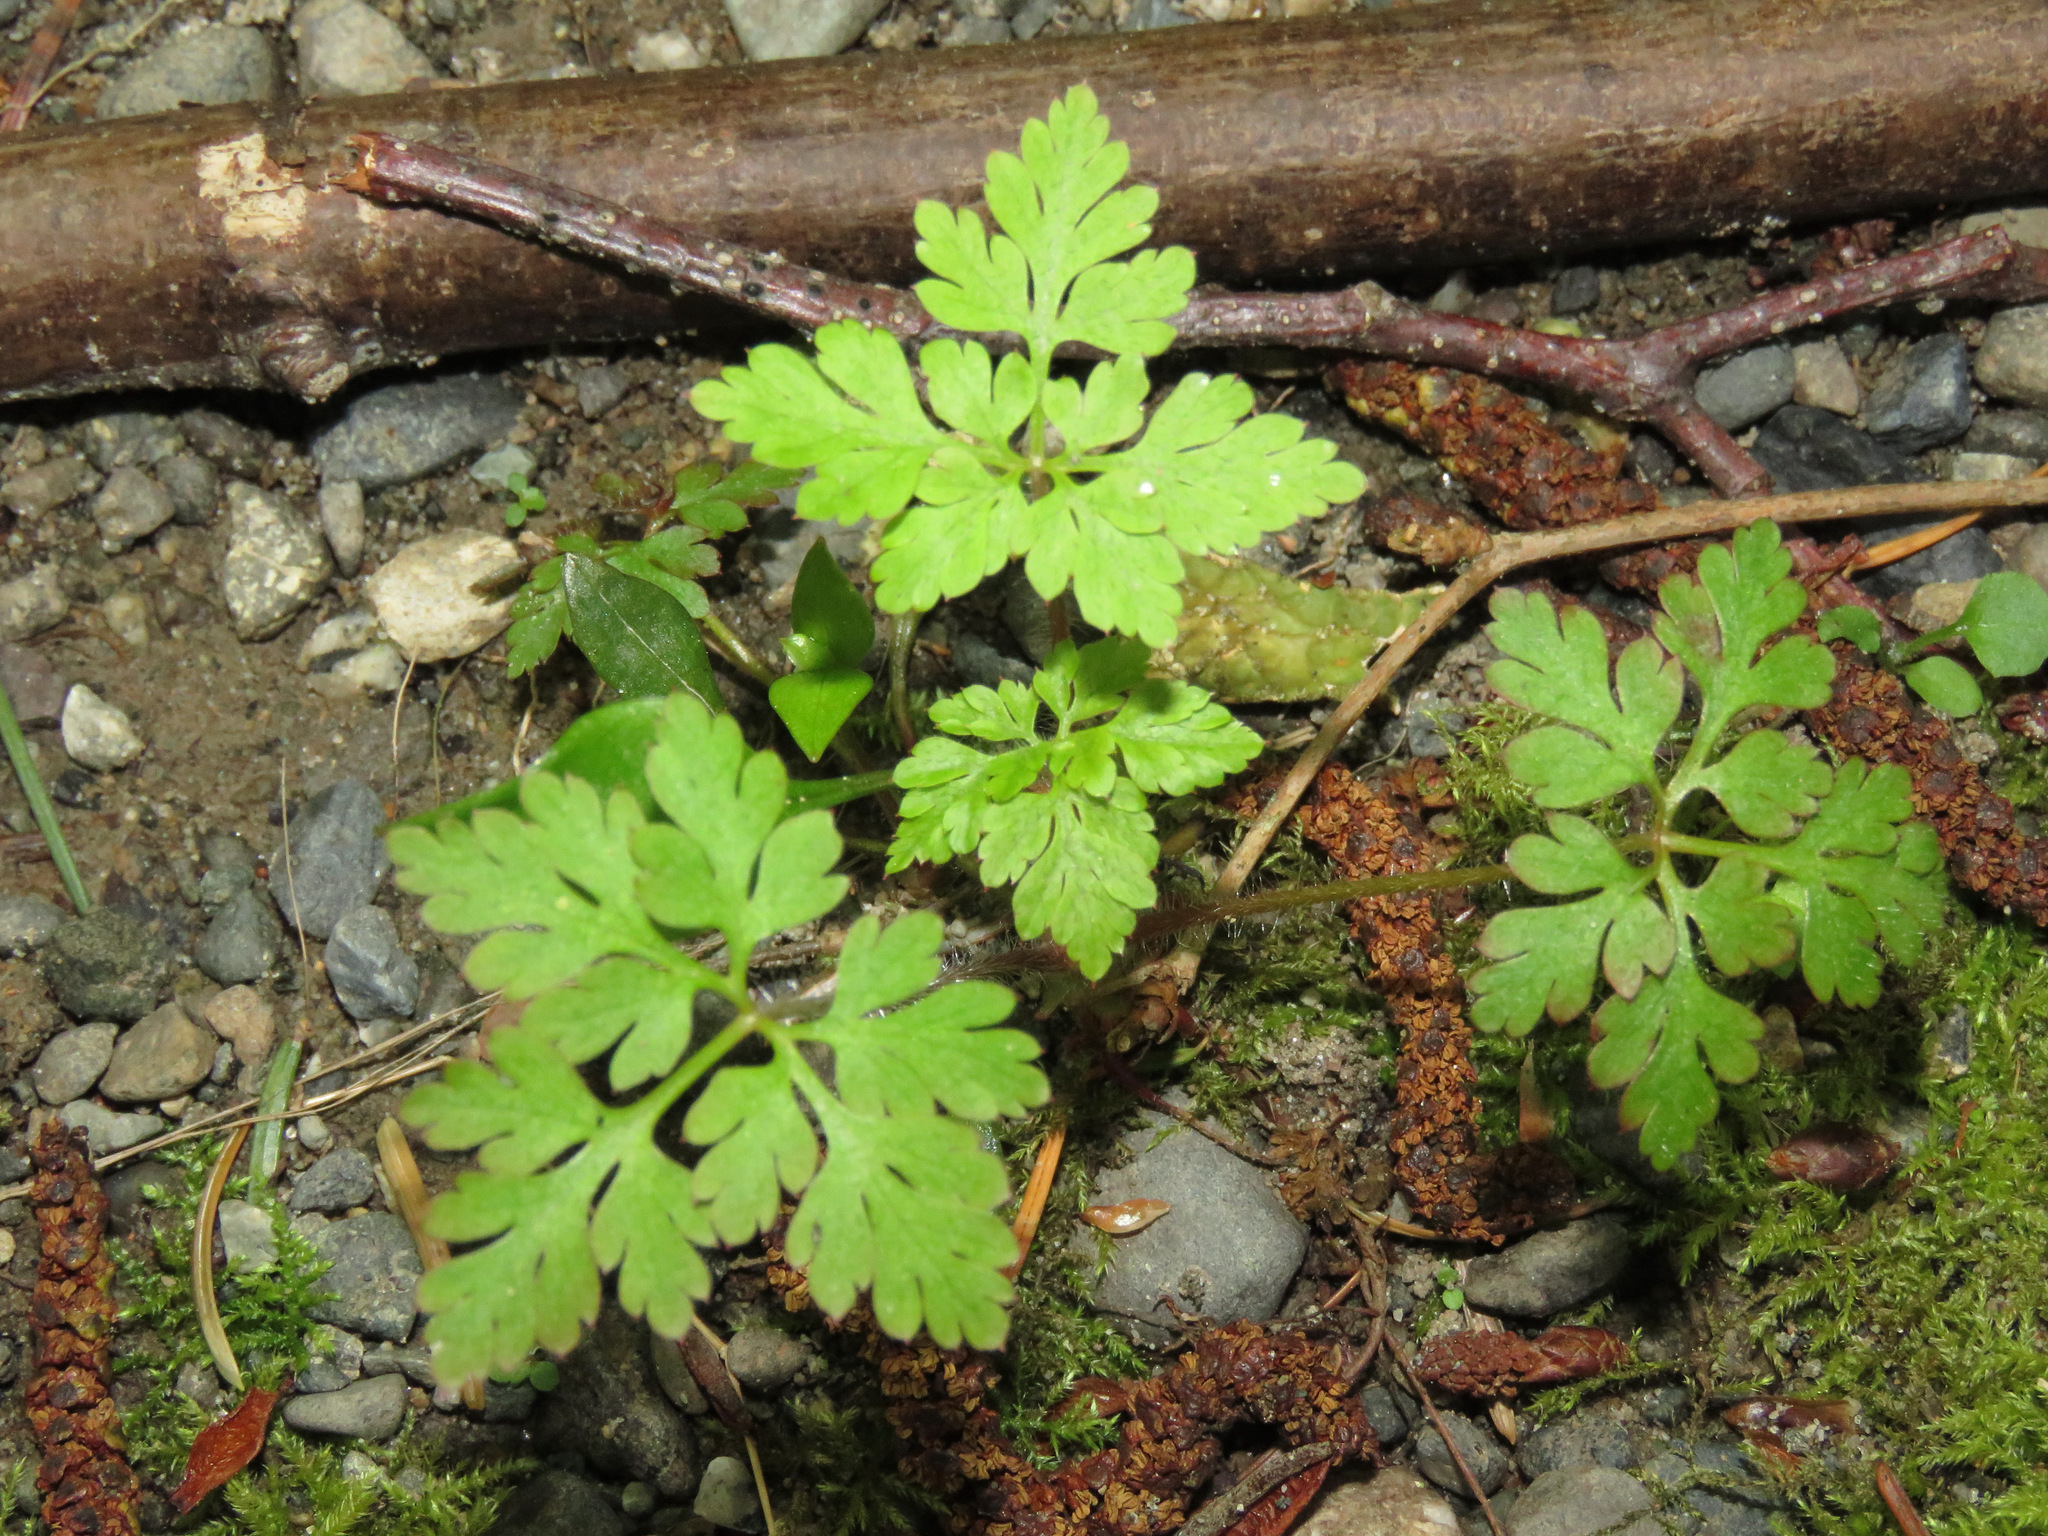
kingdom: Plantae
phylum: Tracheophyta
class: Magnoliopsida
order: Geraniales
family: Geraniaceae
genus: Geranium
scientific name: Geranium robertianum
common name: Herb-robert
